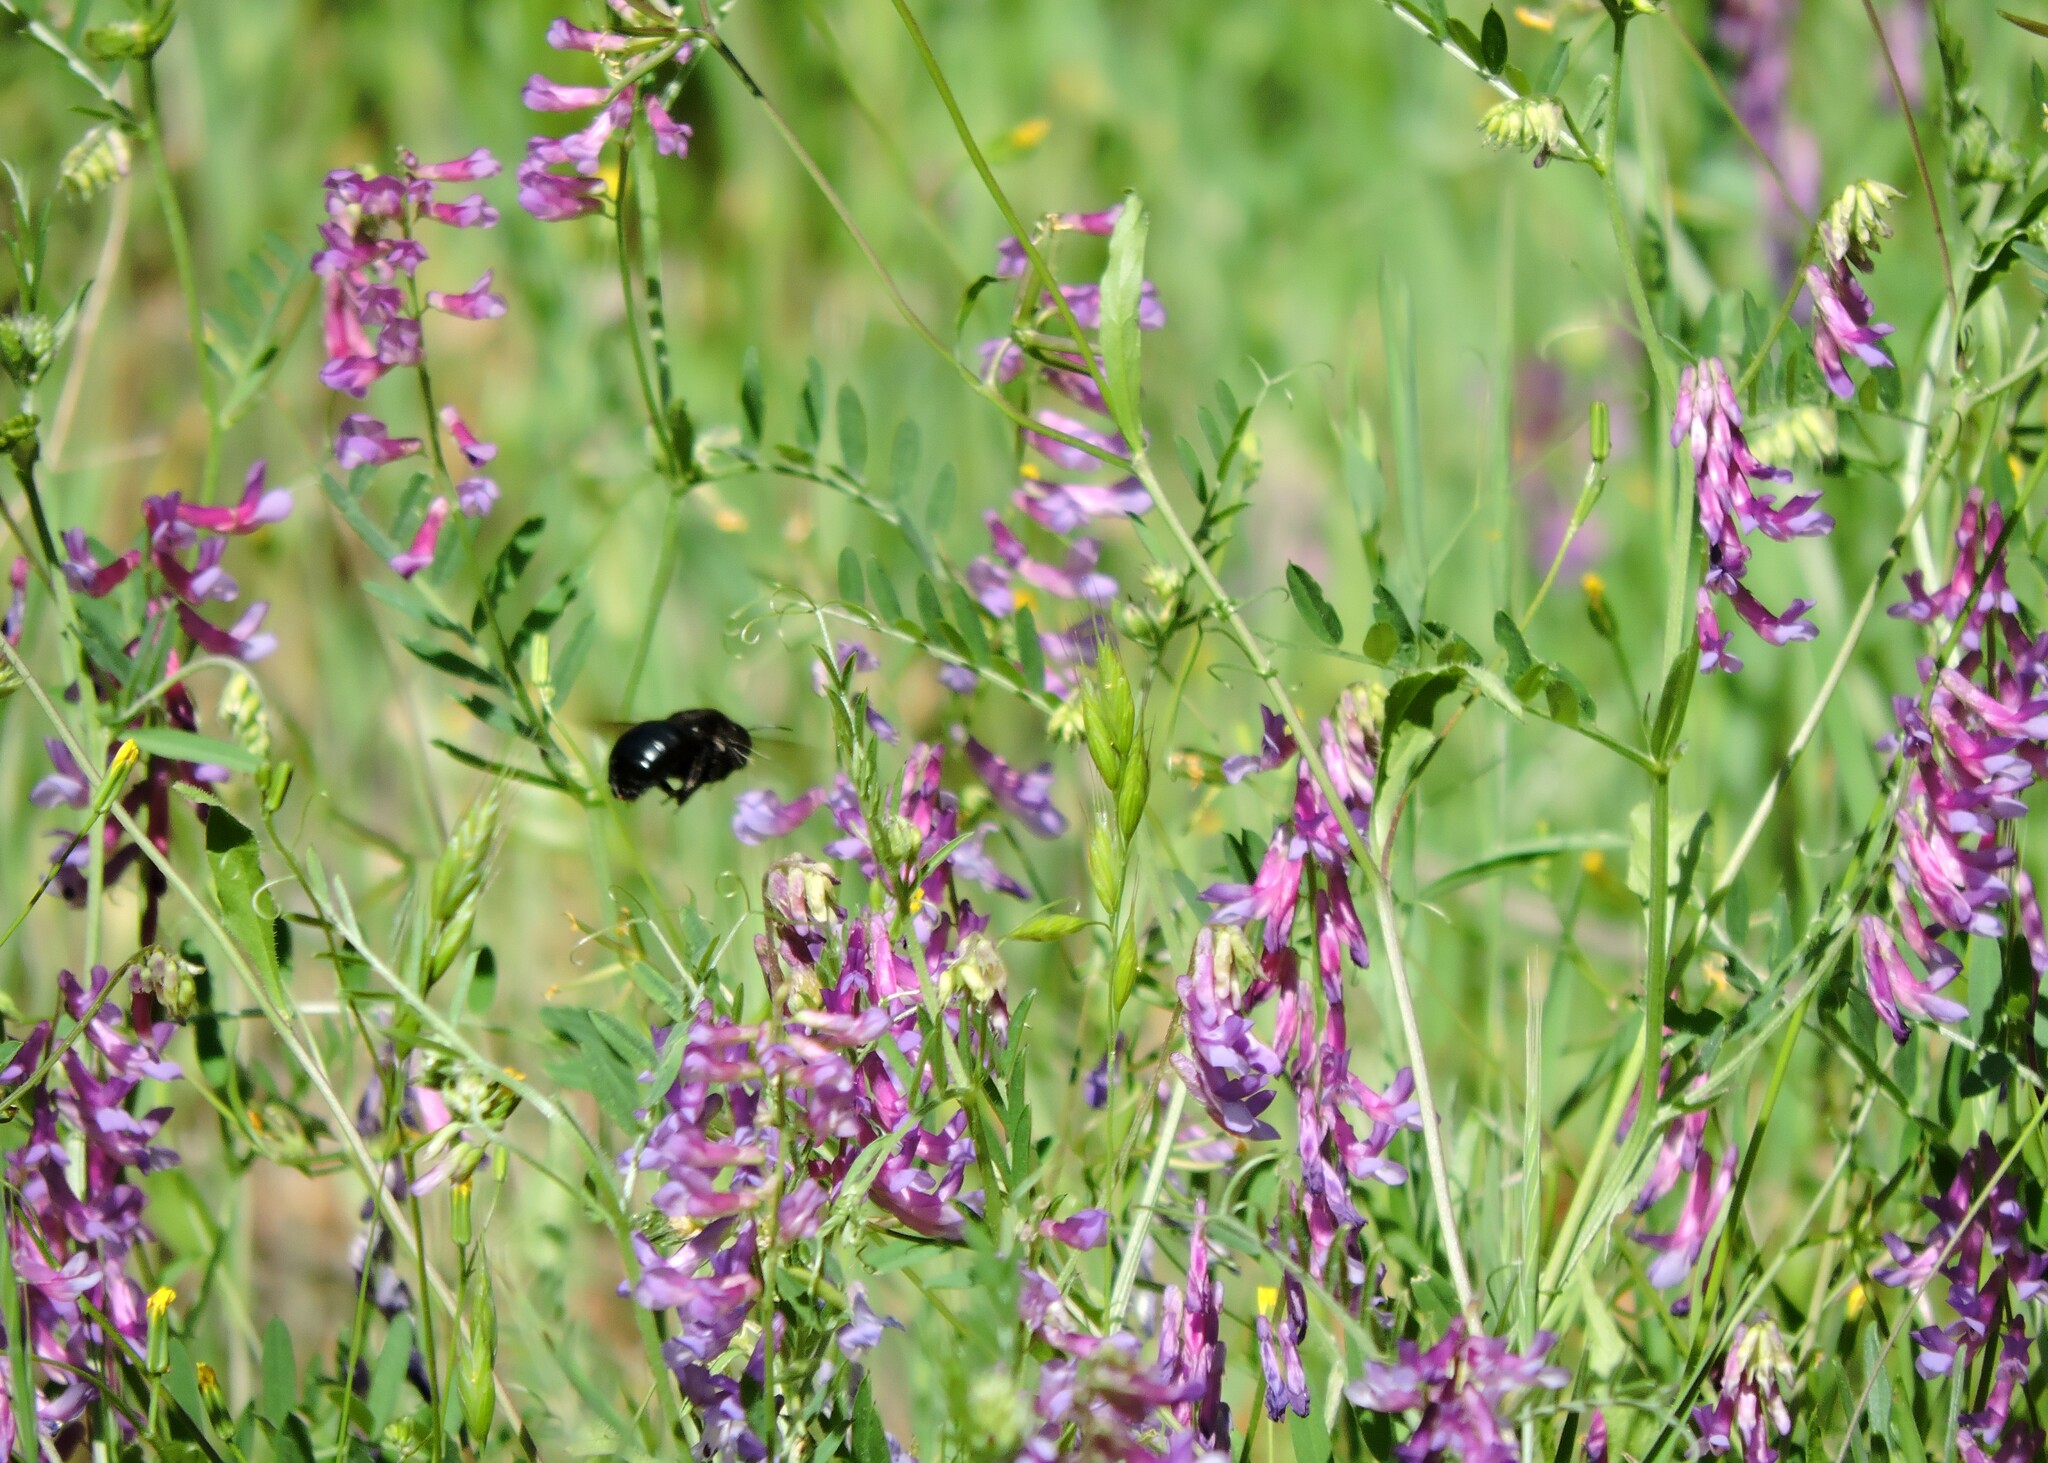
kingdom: Animalia
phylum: Arthropoda
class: Insecta
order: Hymenoptera
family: Apidae
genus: Xylocopa
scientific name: Xylocopa californica
